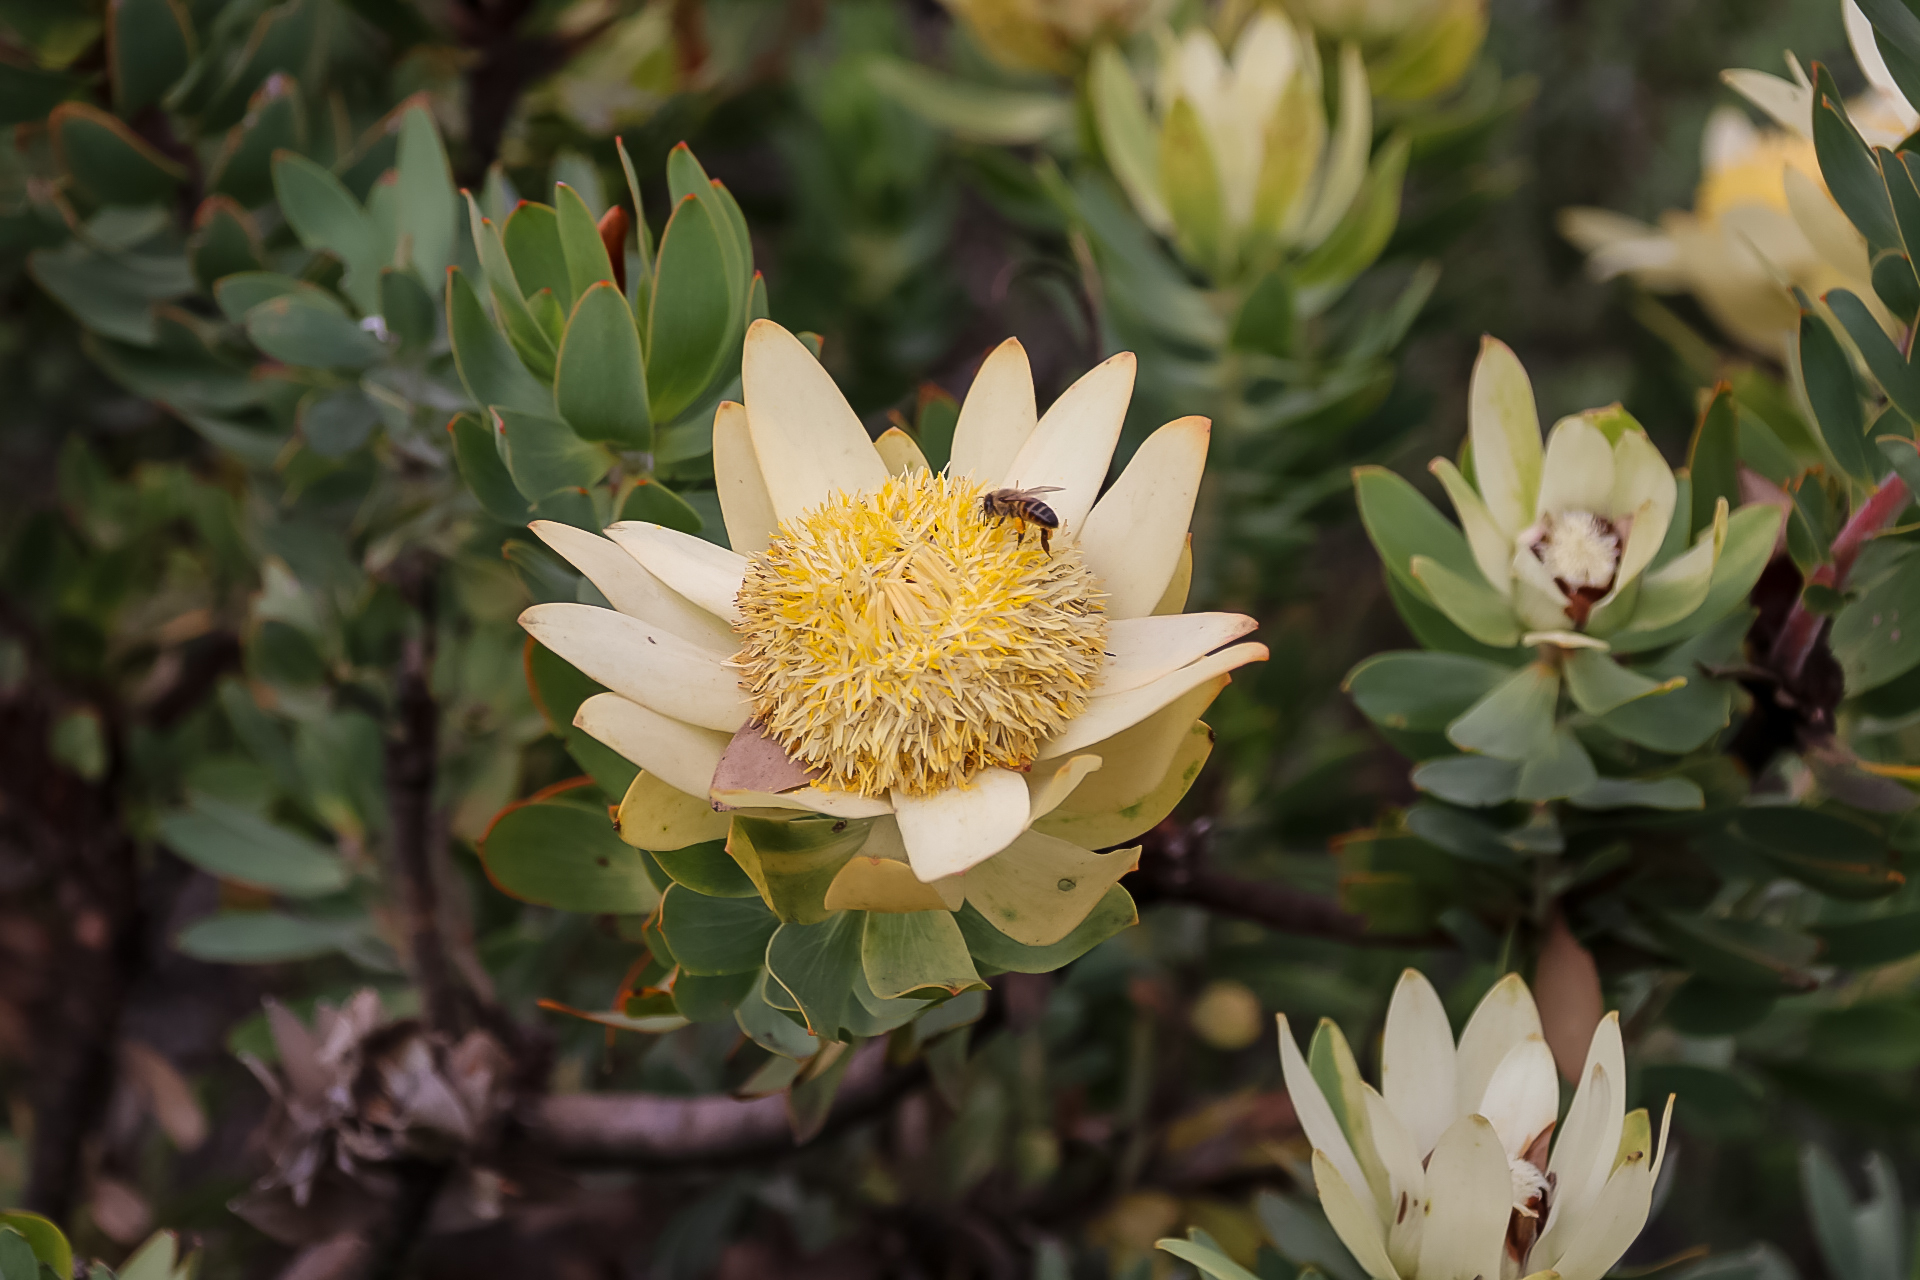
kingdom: Plantae
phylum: Tracheophyta
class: Magnoliopsida
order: Proteales
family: Proteaceae
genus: Leucadendron
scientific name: Leucadendron daphnoides
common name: Du toit's kloof conebush
